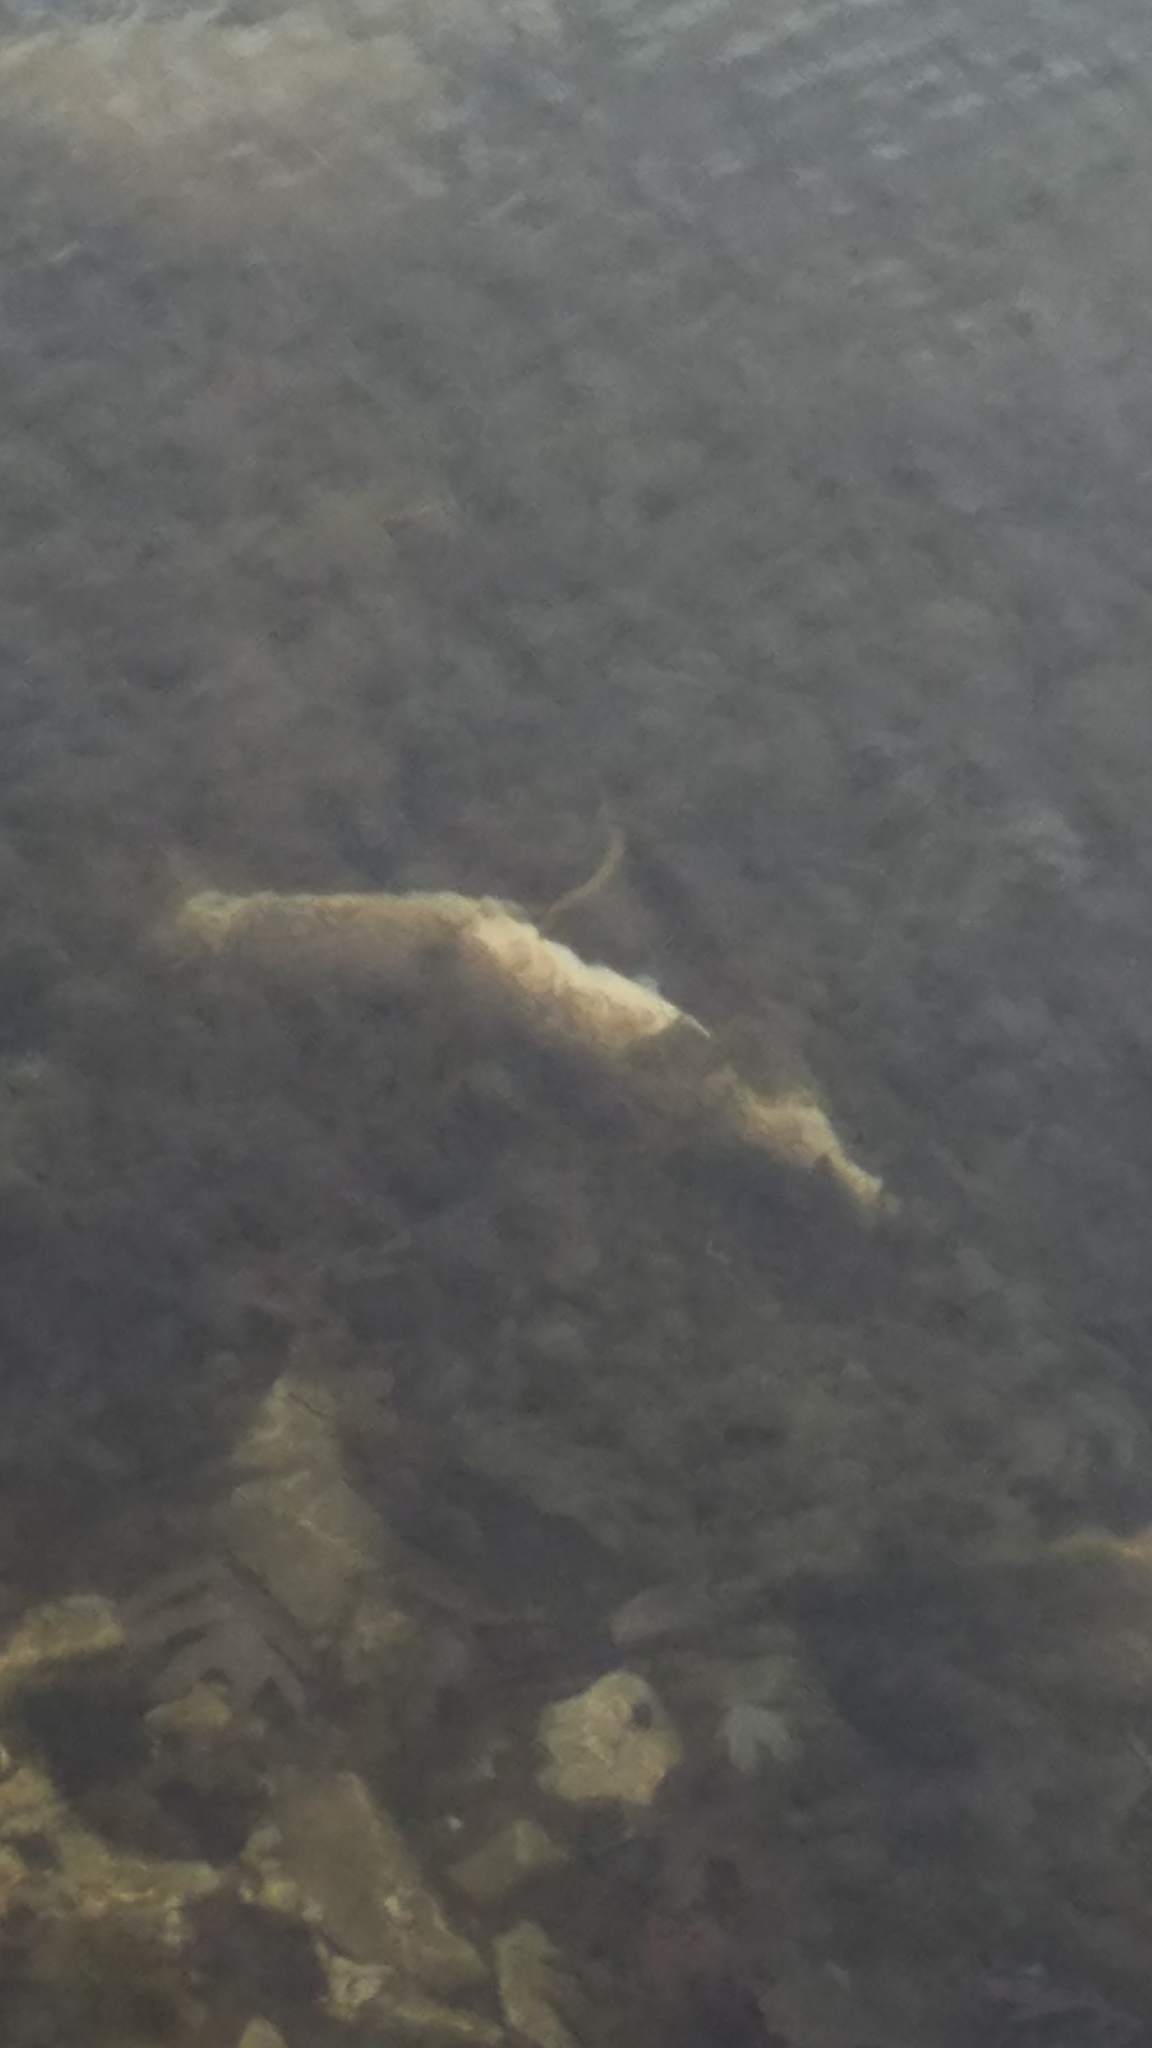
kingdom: Animalia
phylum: Chordata
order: Esociformes
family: Esocidae
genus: Esox
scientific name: Esox lucius
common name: Northern pike
